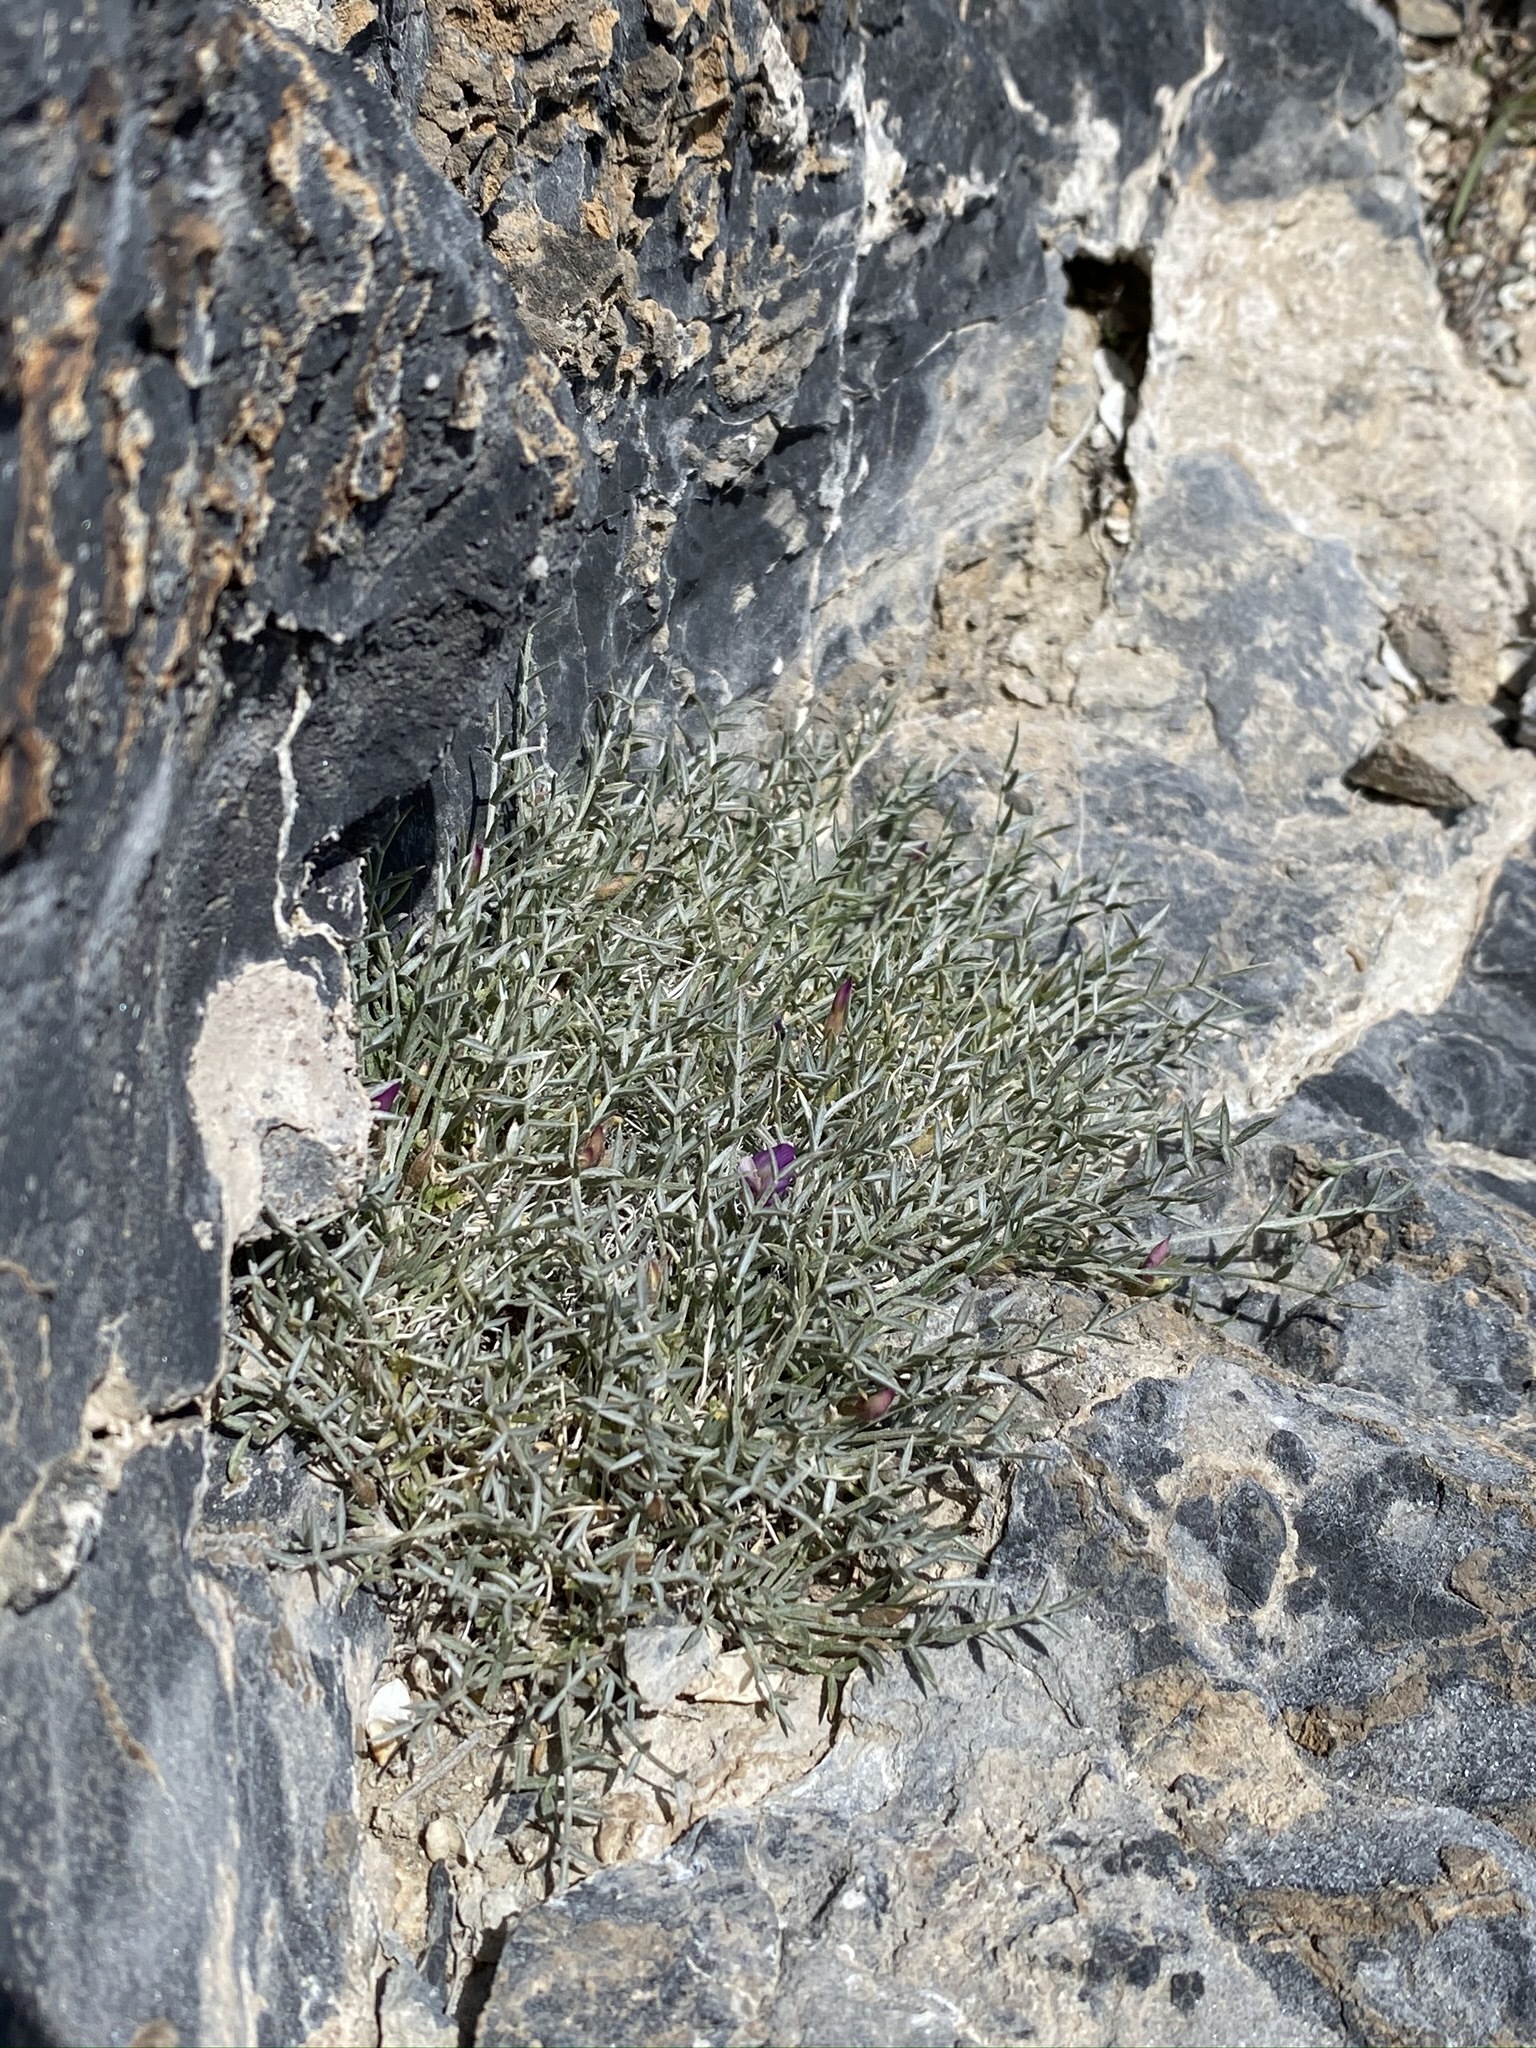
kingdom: Plantae
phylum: Tracheophyta
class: Magnoliopsida
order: Fabales
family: Fabaceae
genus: Astragalus
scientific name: Astragalus panamintensis
